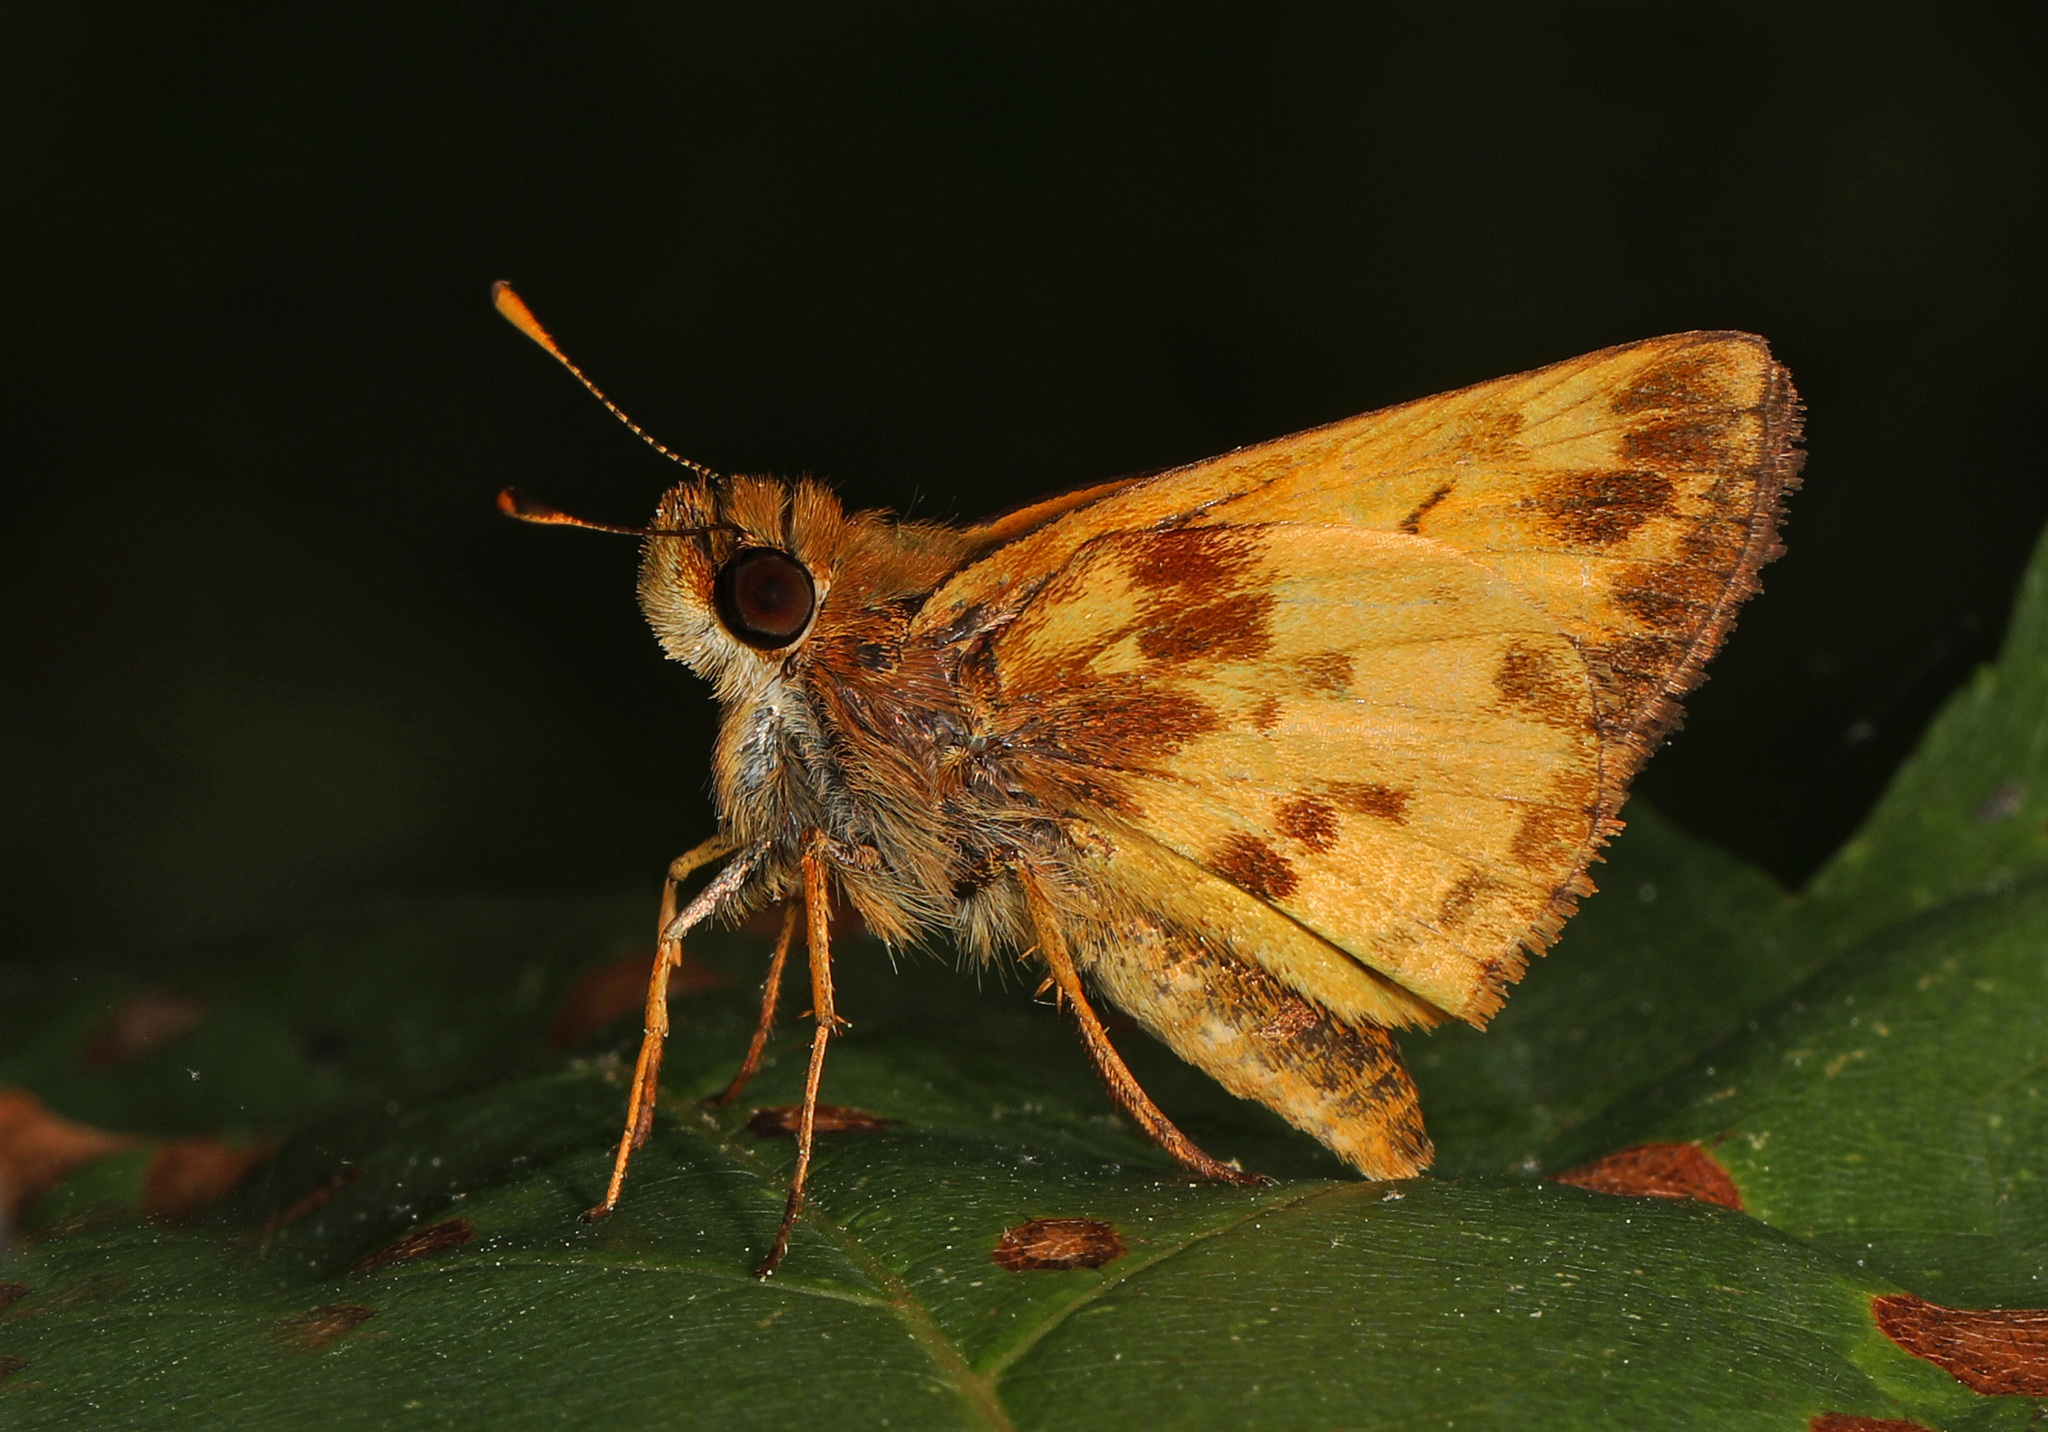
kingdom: Animalia
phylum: Arthropoda
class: Insecta
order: Lepidoptera
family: Hesperiidae
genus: Lon
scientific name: Lon zabulon
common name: Zabulon skipper
